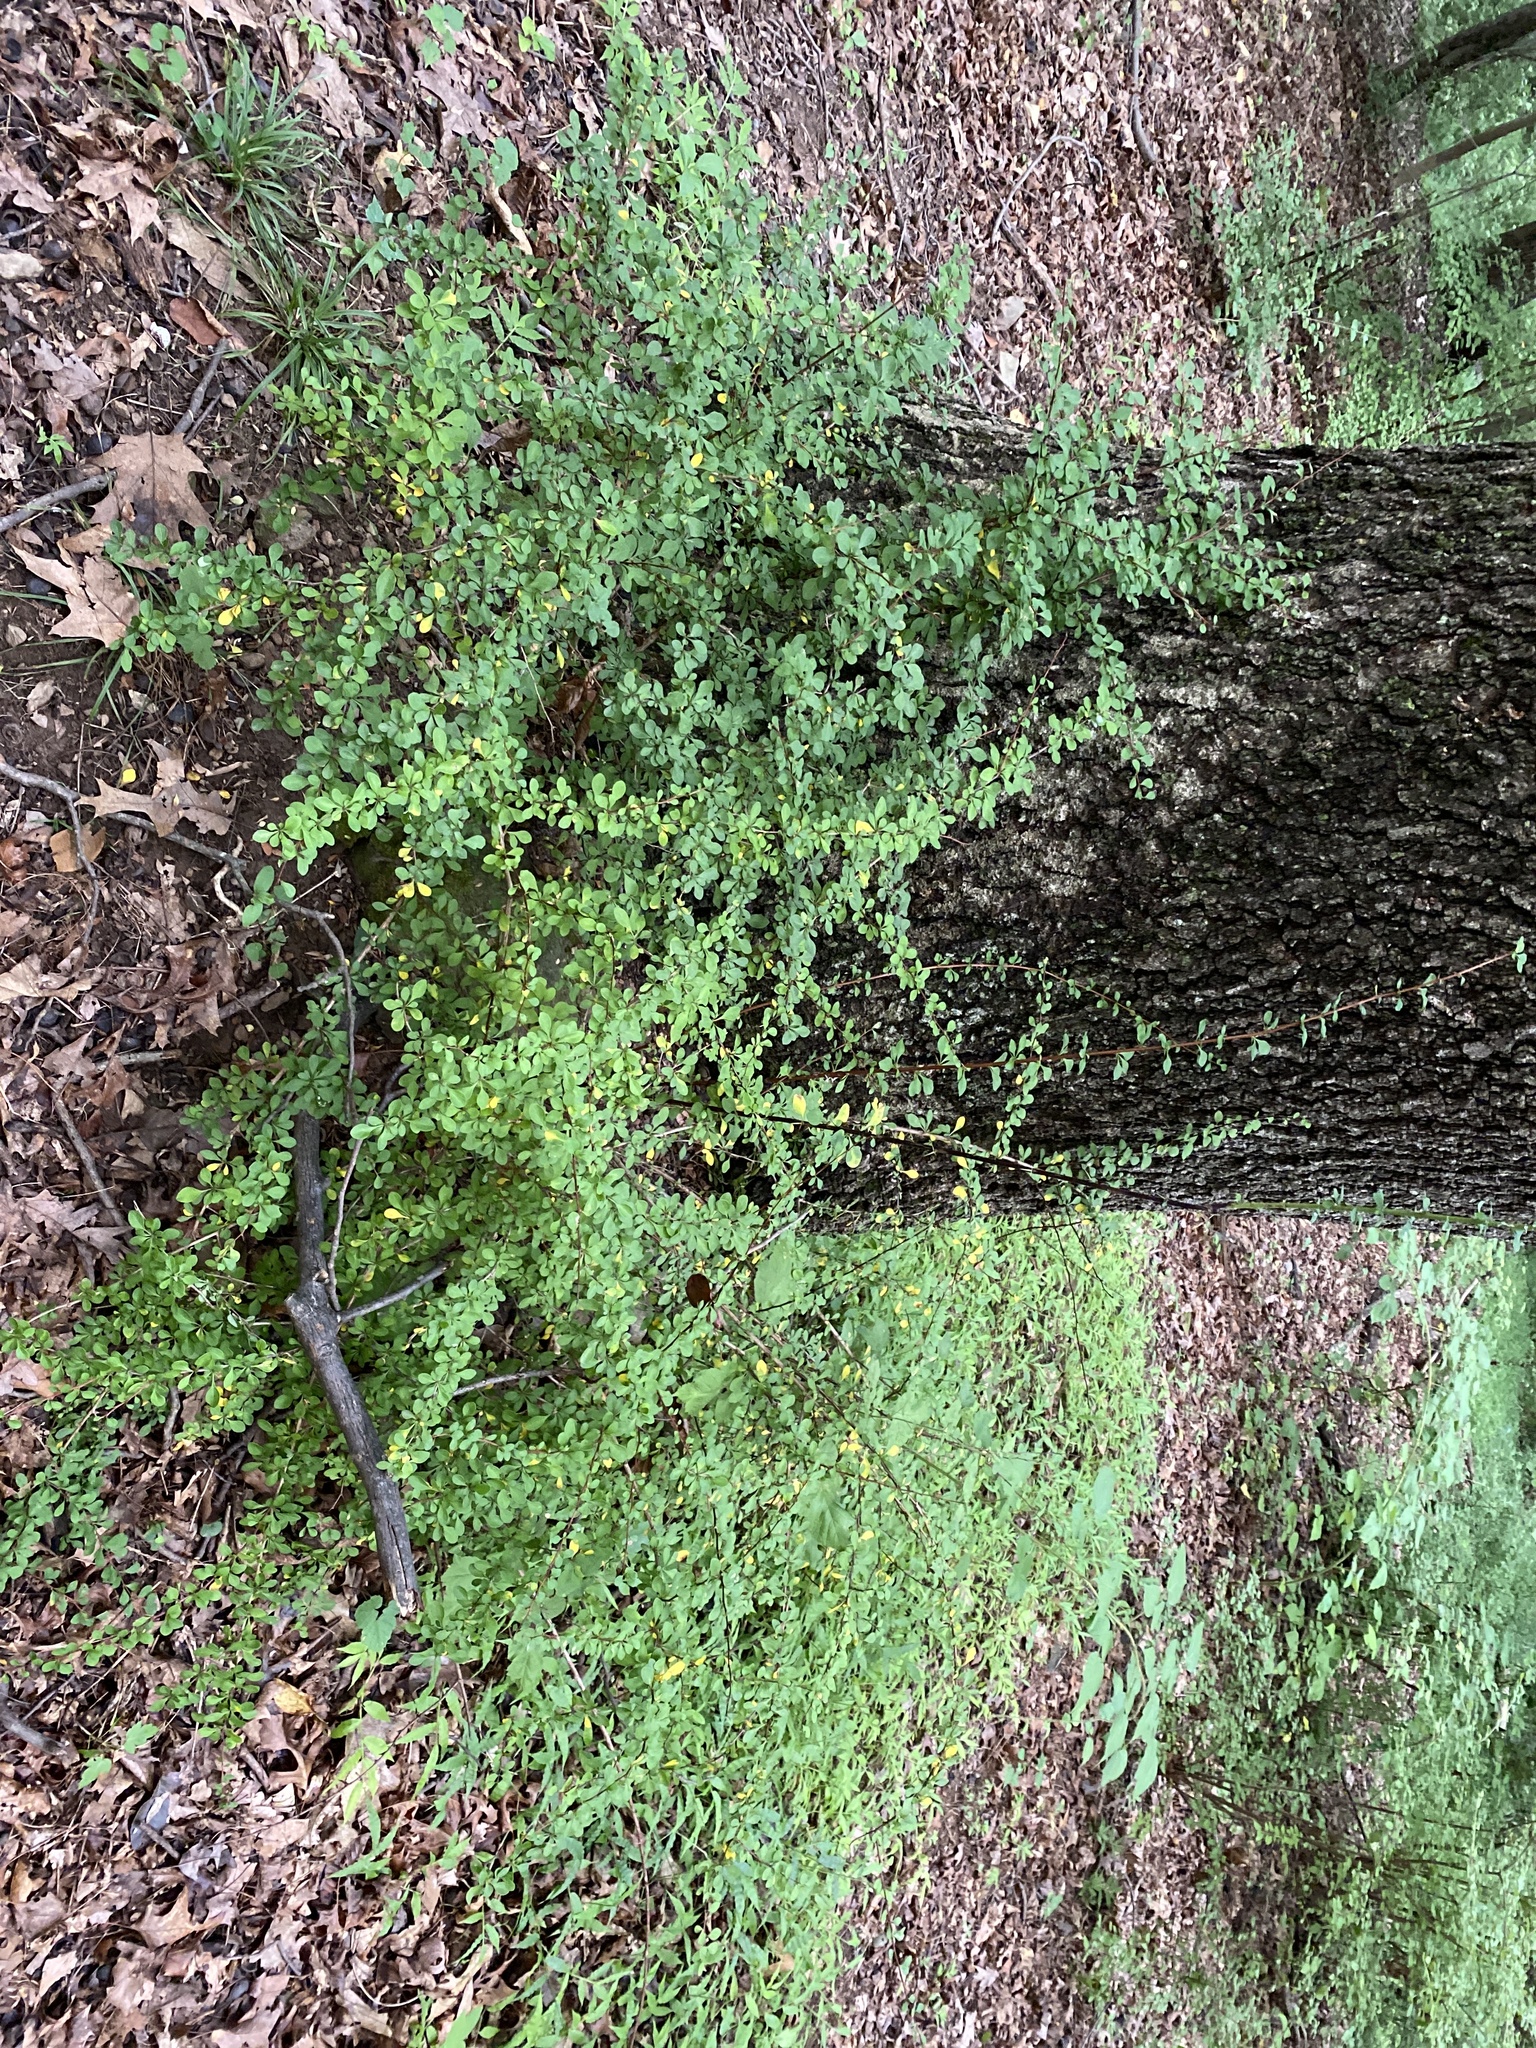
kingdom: Plantae
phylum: Tracheophyta
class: Magnoliopsida
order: Ranunculales
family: Berberidaceae
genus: Berberis
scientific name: Berberis thunbergii
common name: Japanese barberry
